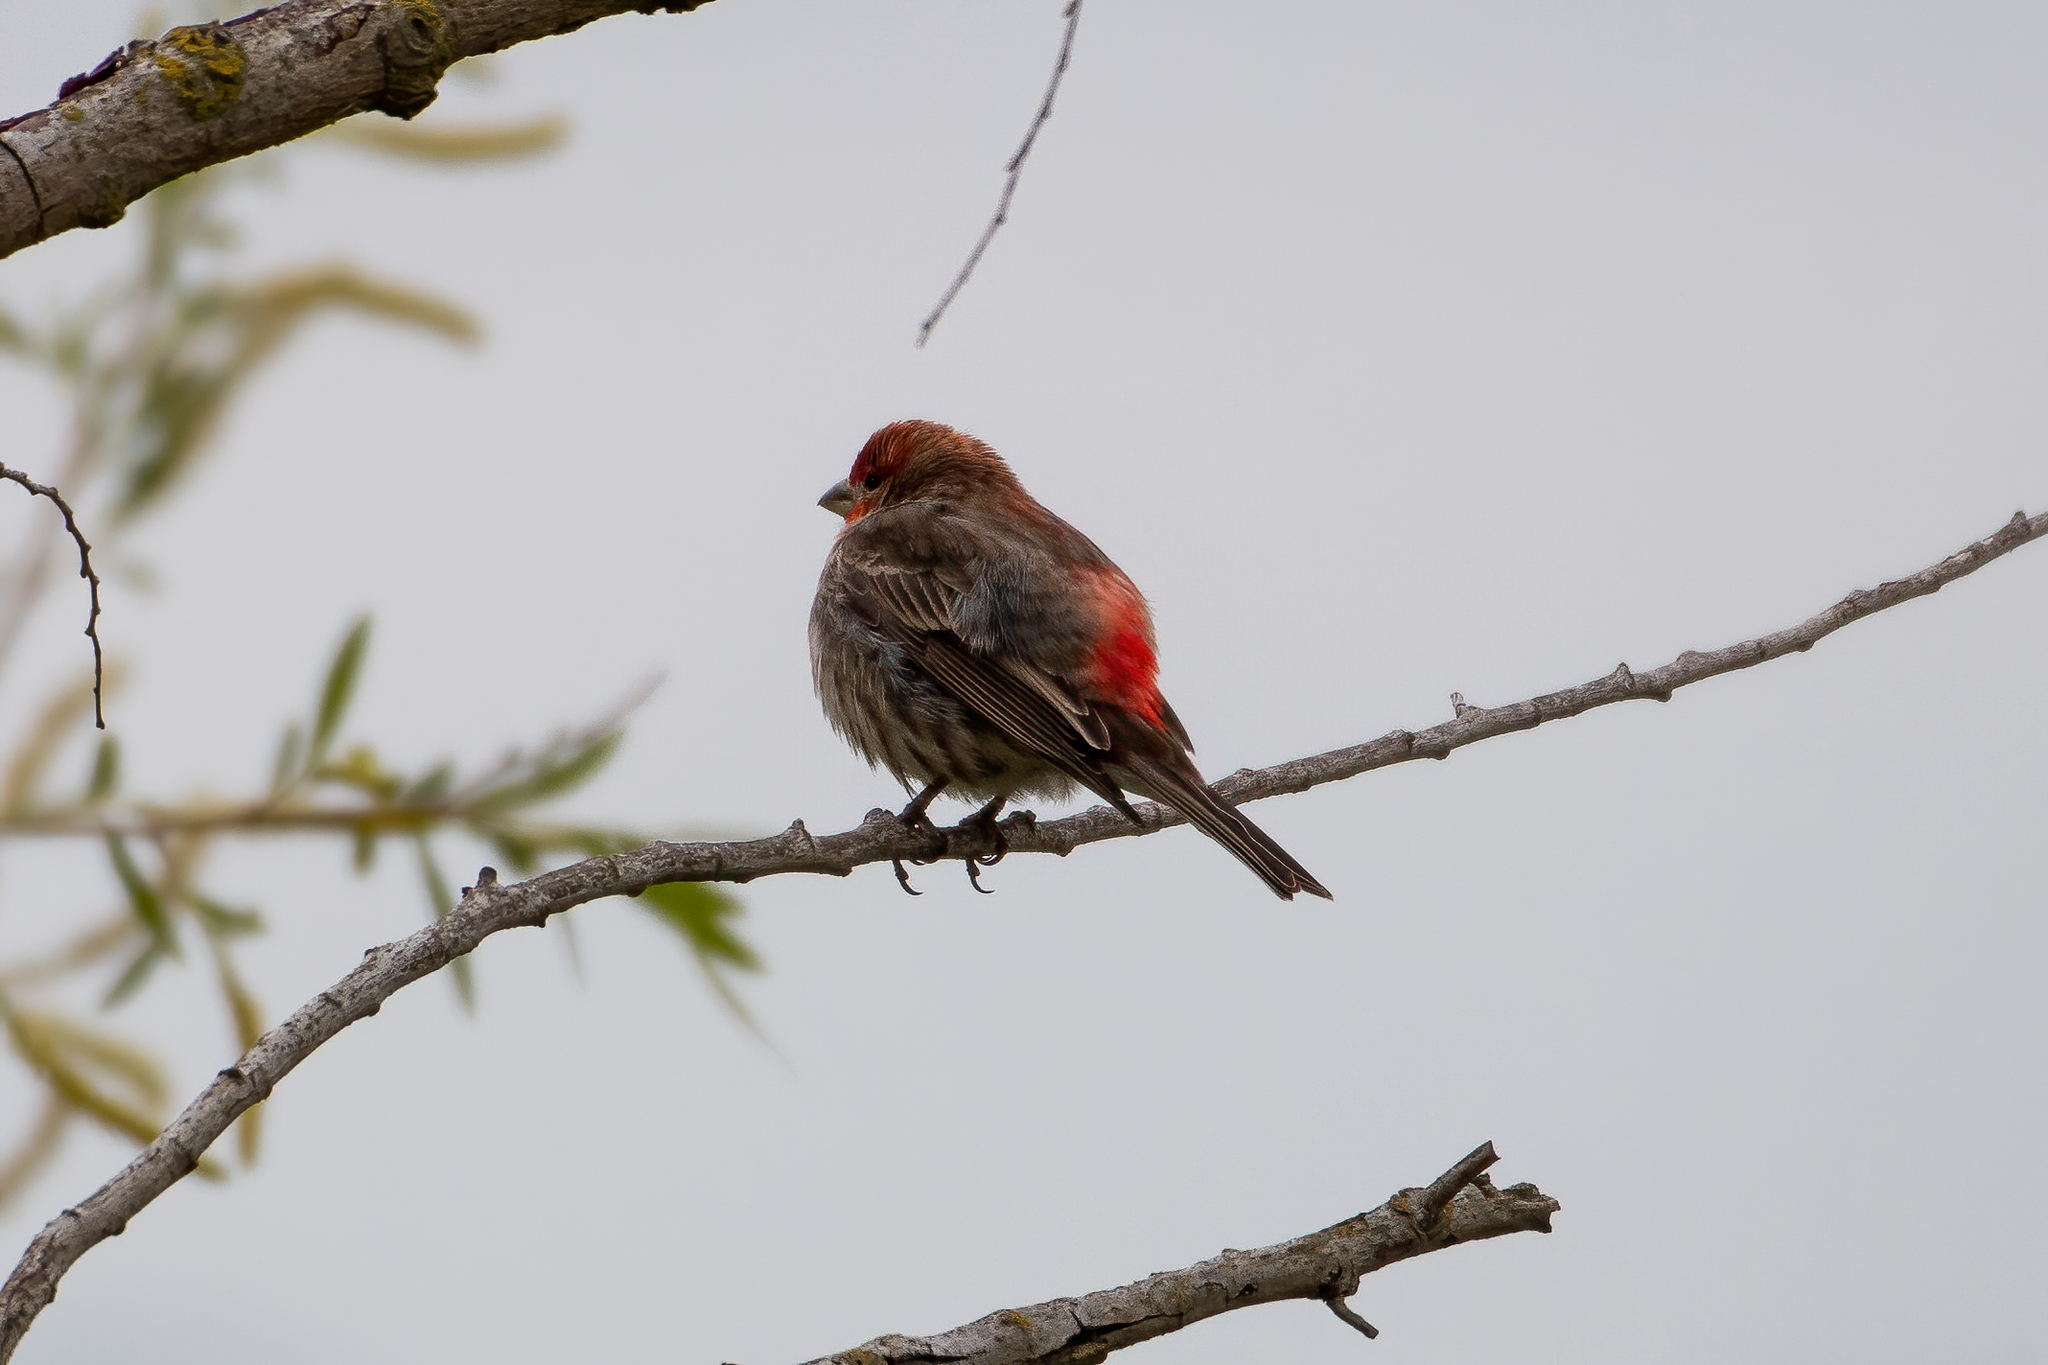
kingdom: Animalia
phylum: Chordata
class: Aves
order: Passeriformes
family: Fringillidae
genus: Haemorhous
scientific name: Haemorhous mexicanus
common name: House finch
